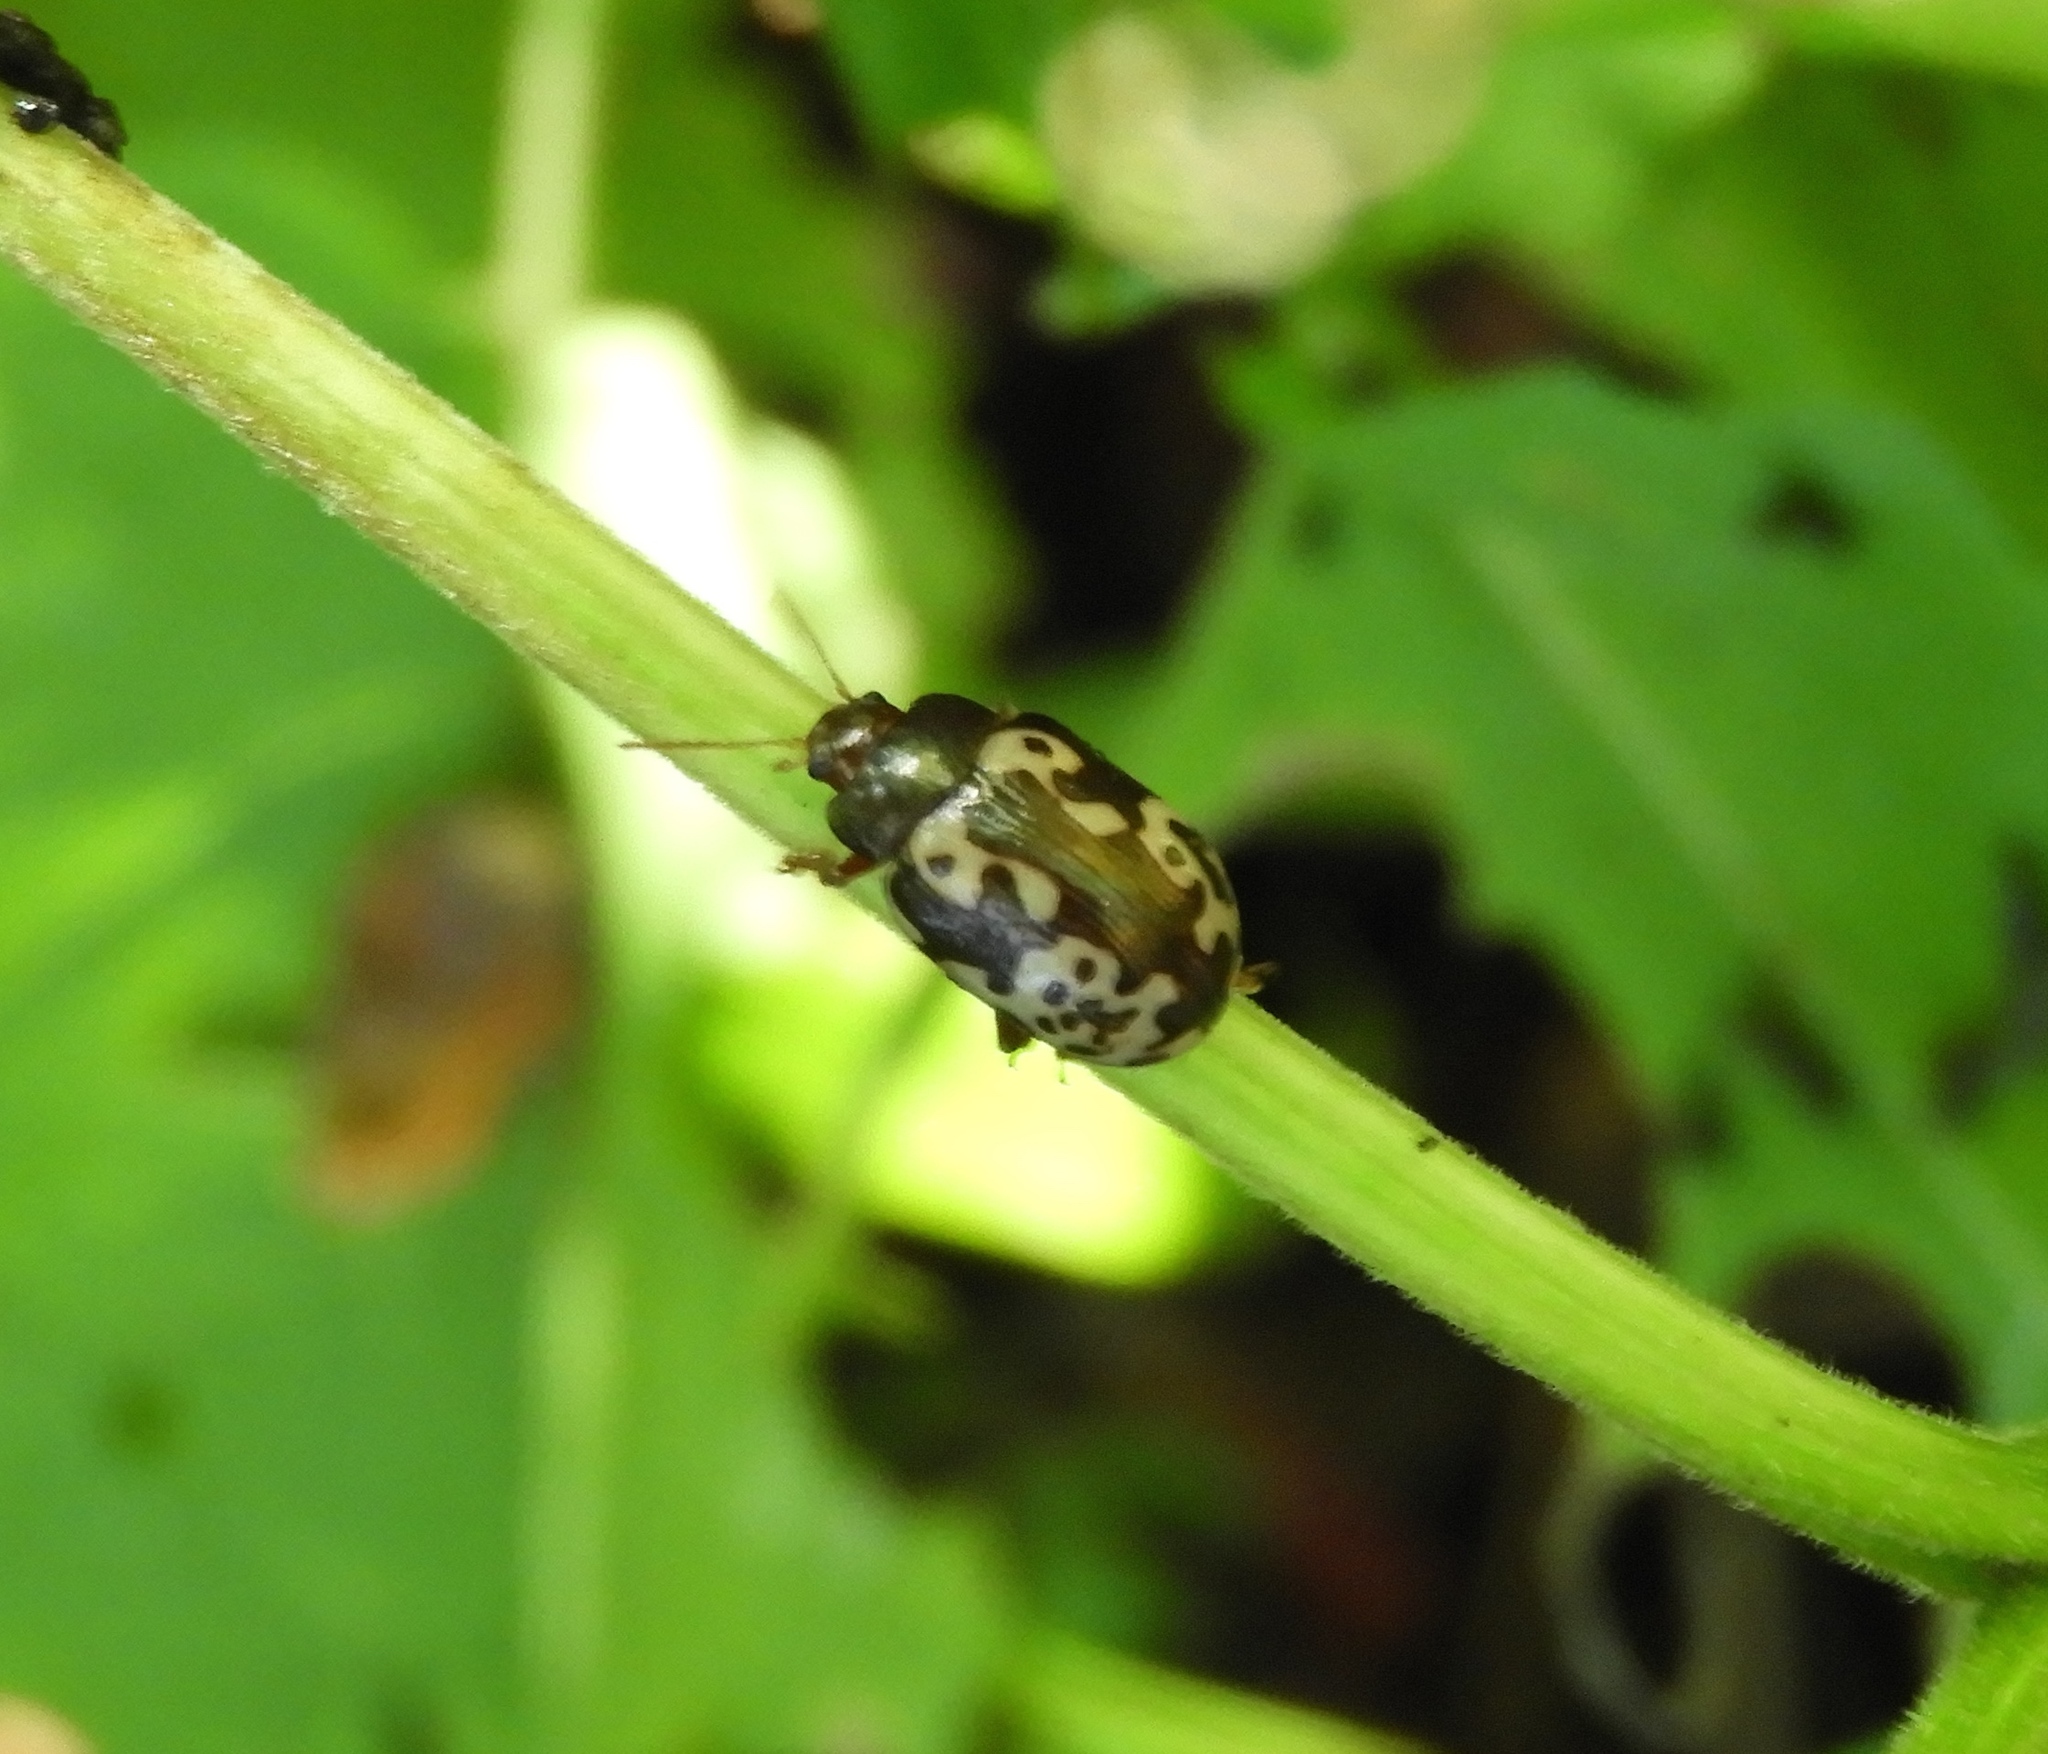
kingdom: Animalia
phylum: Arthropoda
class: Insecta
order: Coleoptera
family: Chrysomelidae
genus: Calligrapha
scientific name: Calligrapha intermedia
